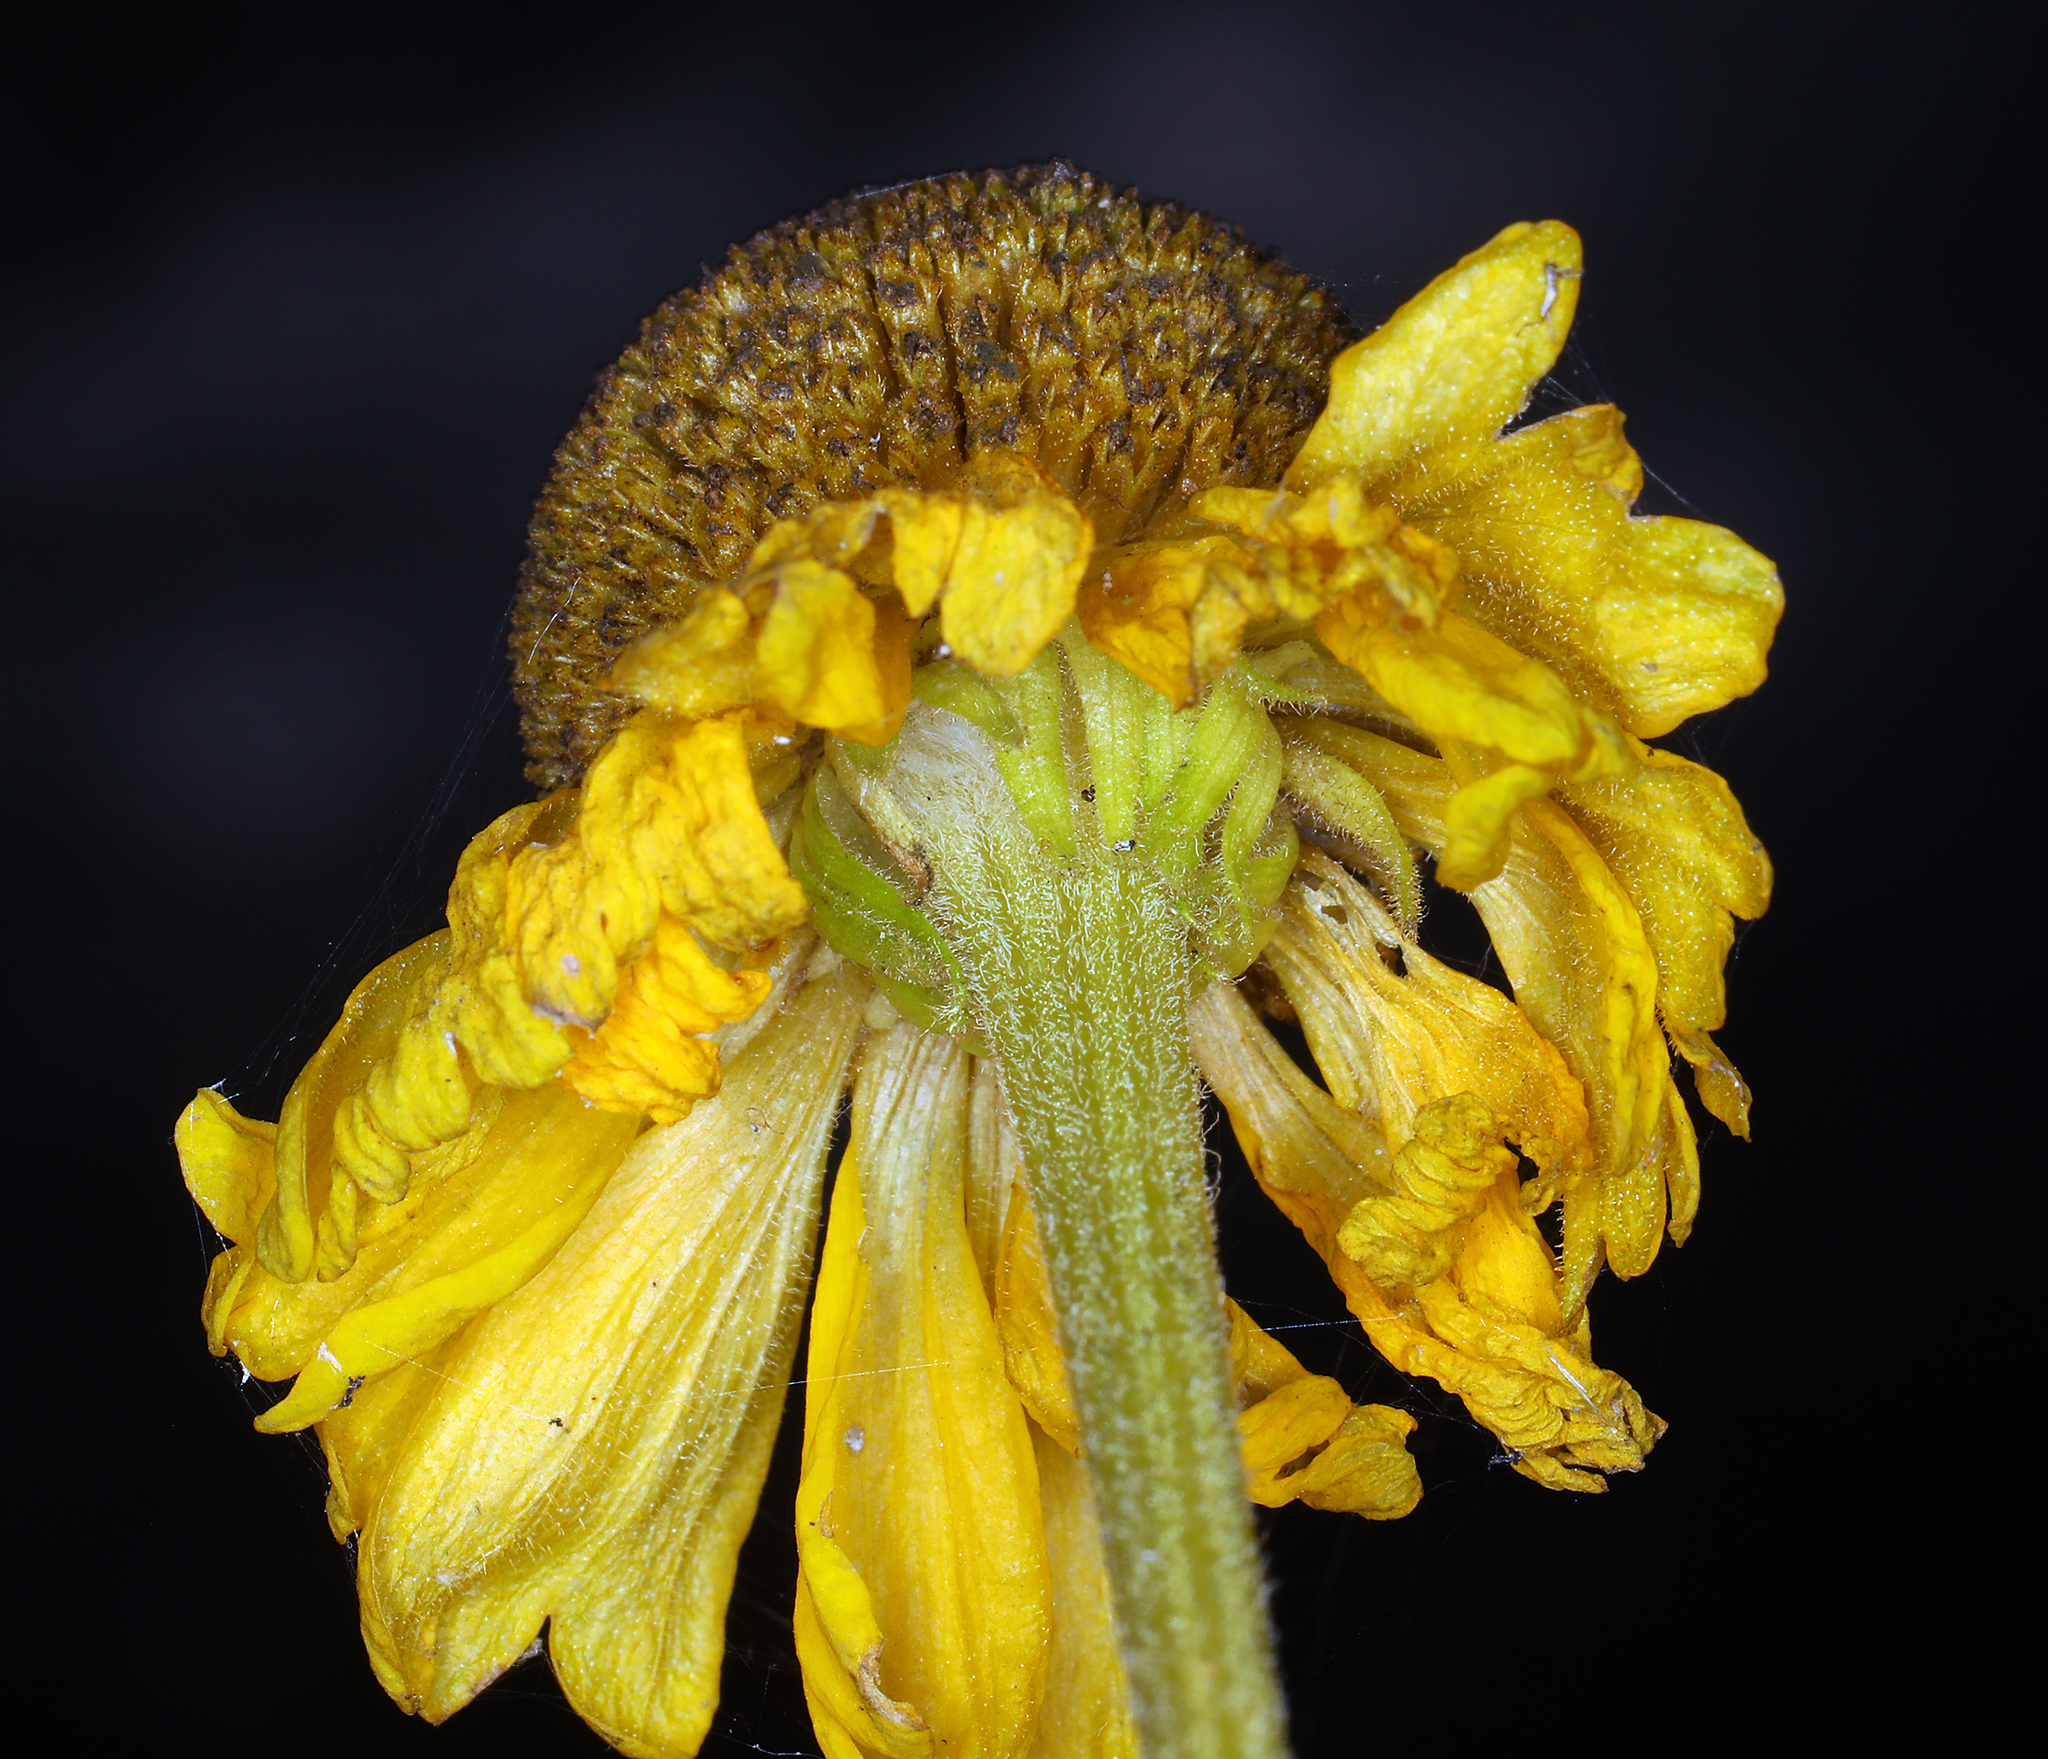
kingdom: Plantae
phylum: Tracheophyta
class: Magnoliopsida
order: Asterales
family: Asteraceae
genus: Helenium
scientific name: Helenium bigelovii
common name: Bigelow's sneezeweed
